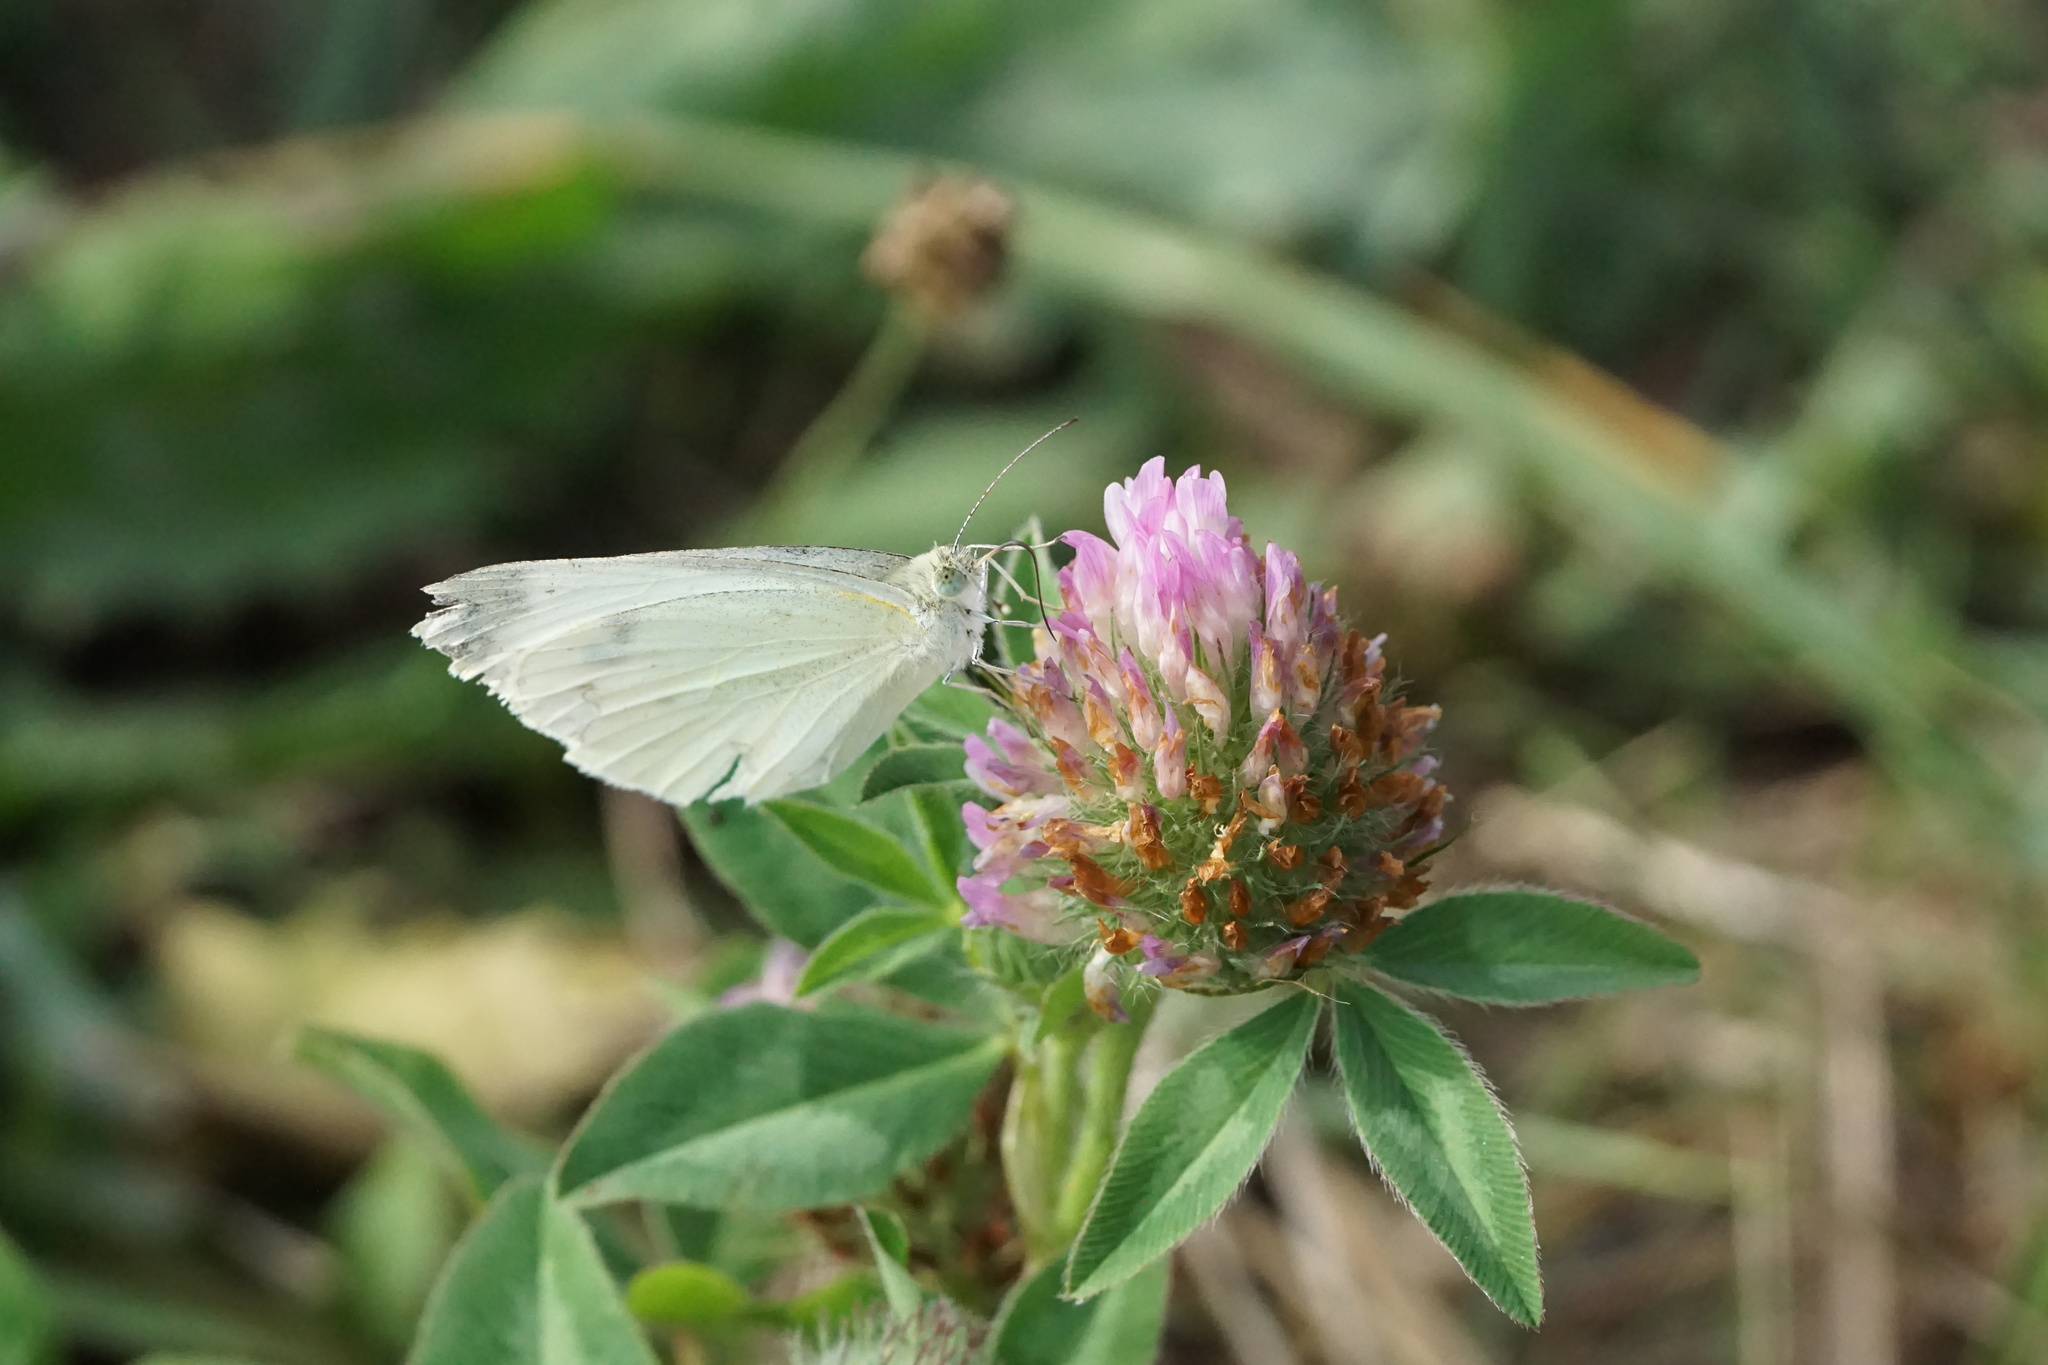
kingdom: Animalia
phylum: Arthropoda
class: Insecta
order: Lepidoptera
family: Pieridae
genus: Pieris
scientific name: Pieris rapae
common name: Small white
